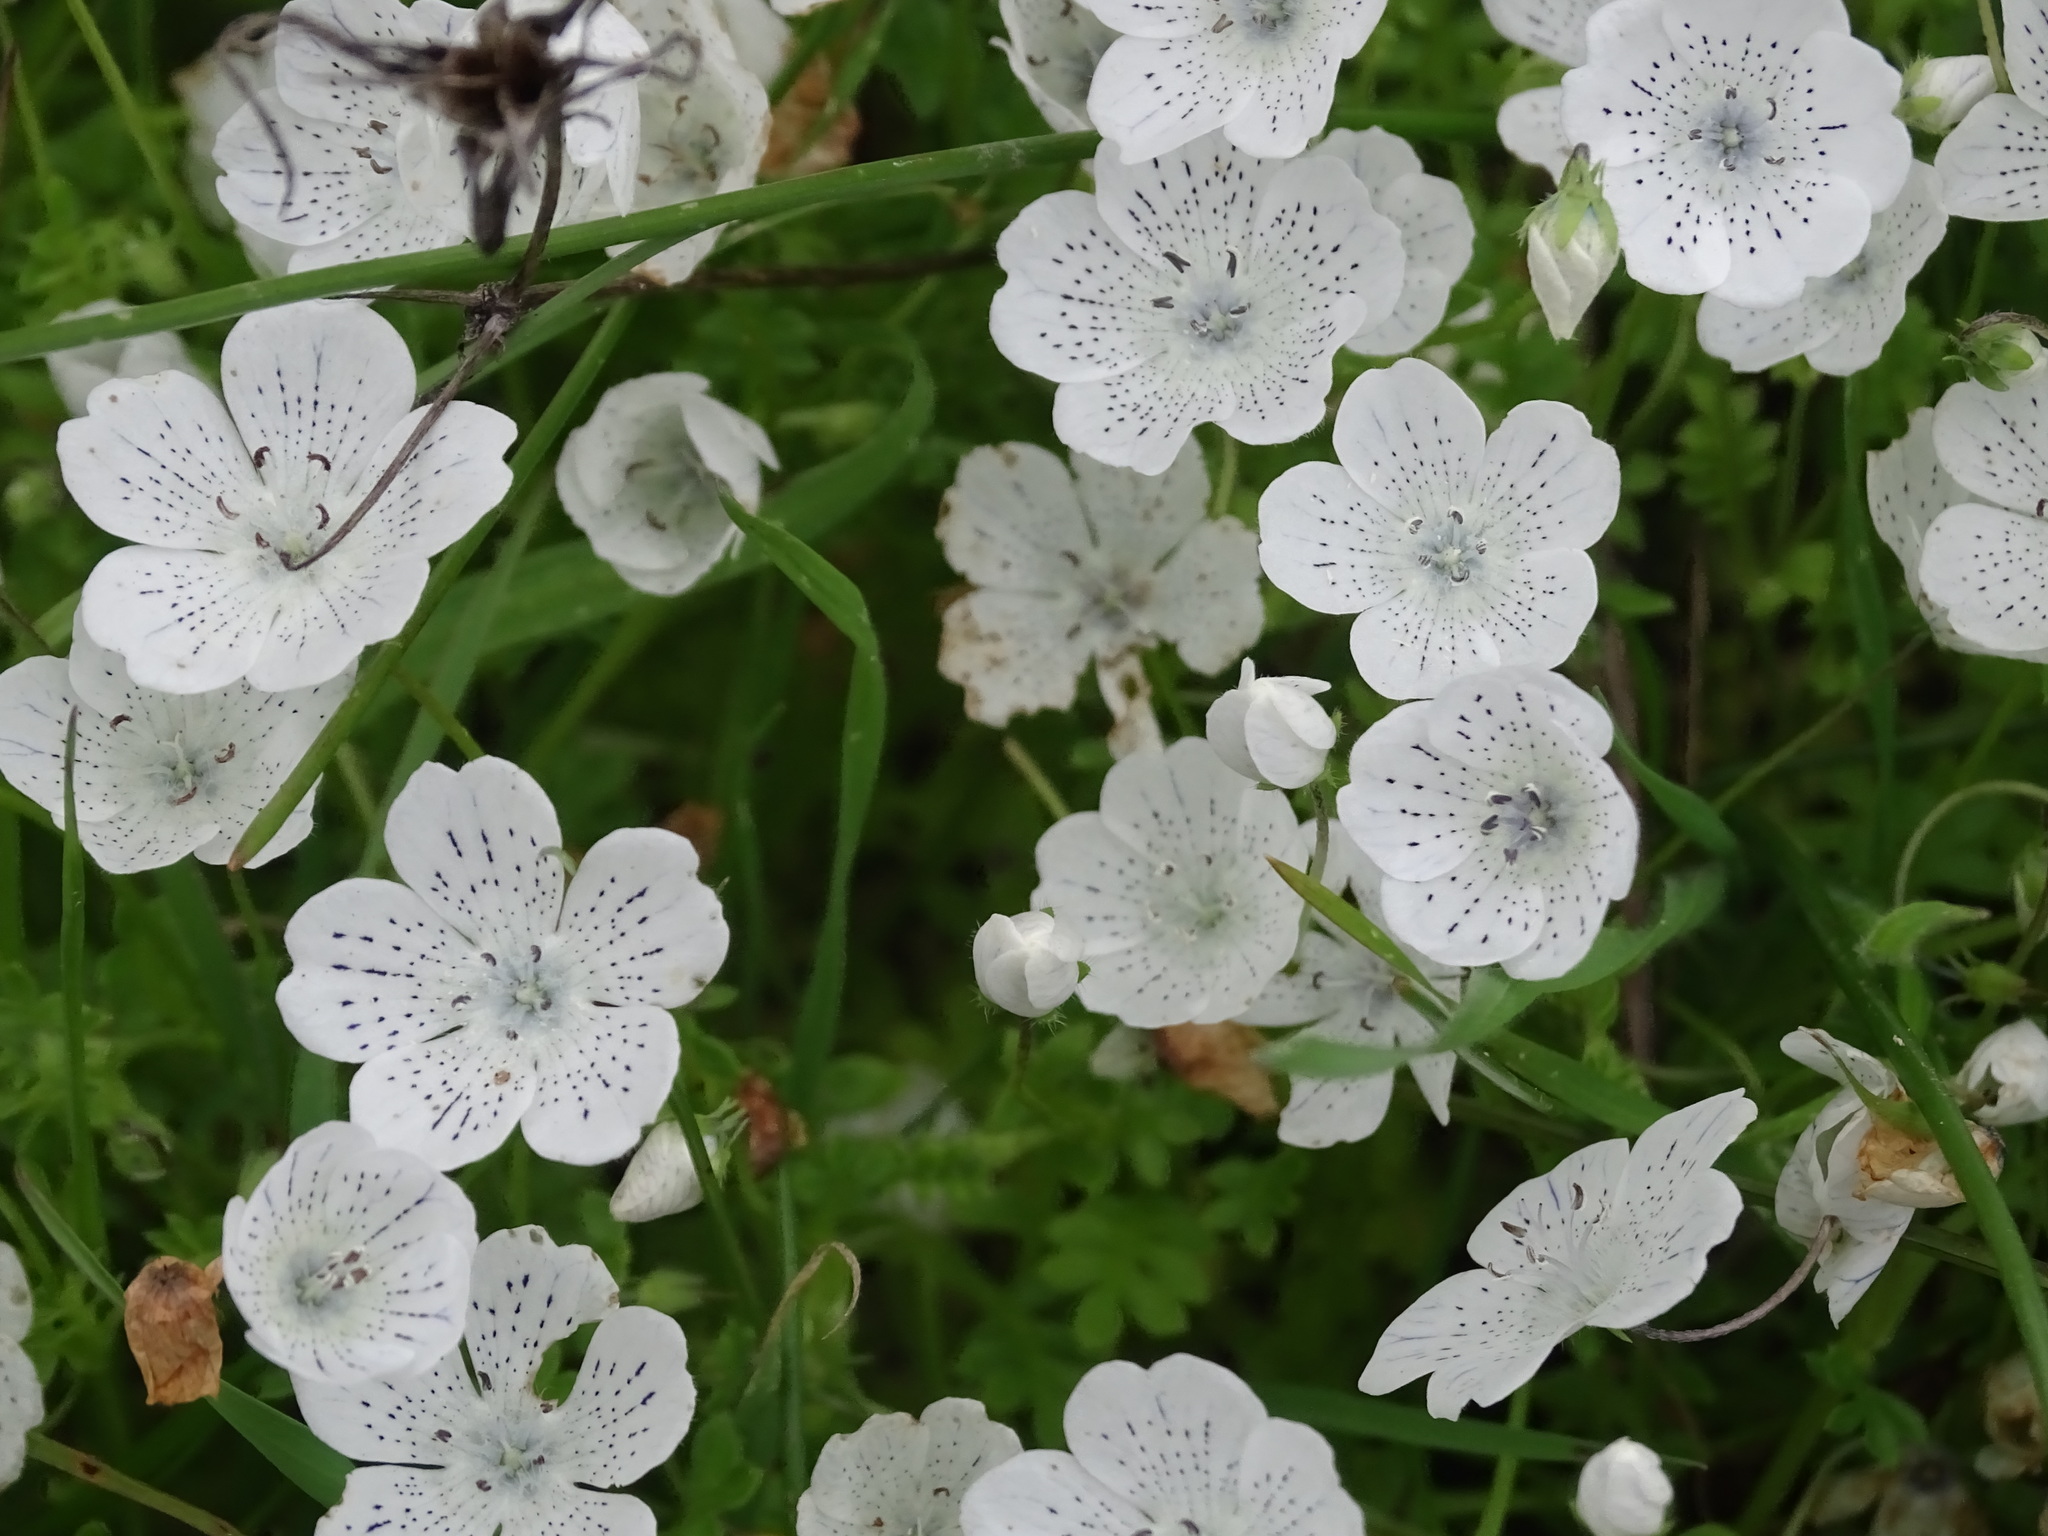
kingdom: Plantae
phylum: Tracheophyta
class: Magnoliopsida
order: Boraginales
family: Hydrophyllaceae
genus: Nemophila
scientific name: Nemophila menziesii
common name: Baby's-blue-eyes
